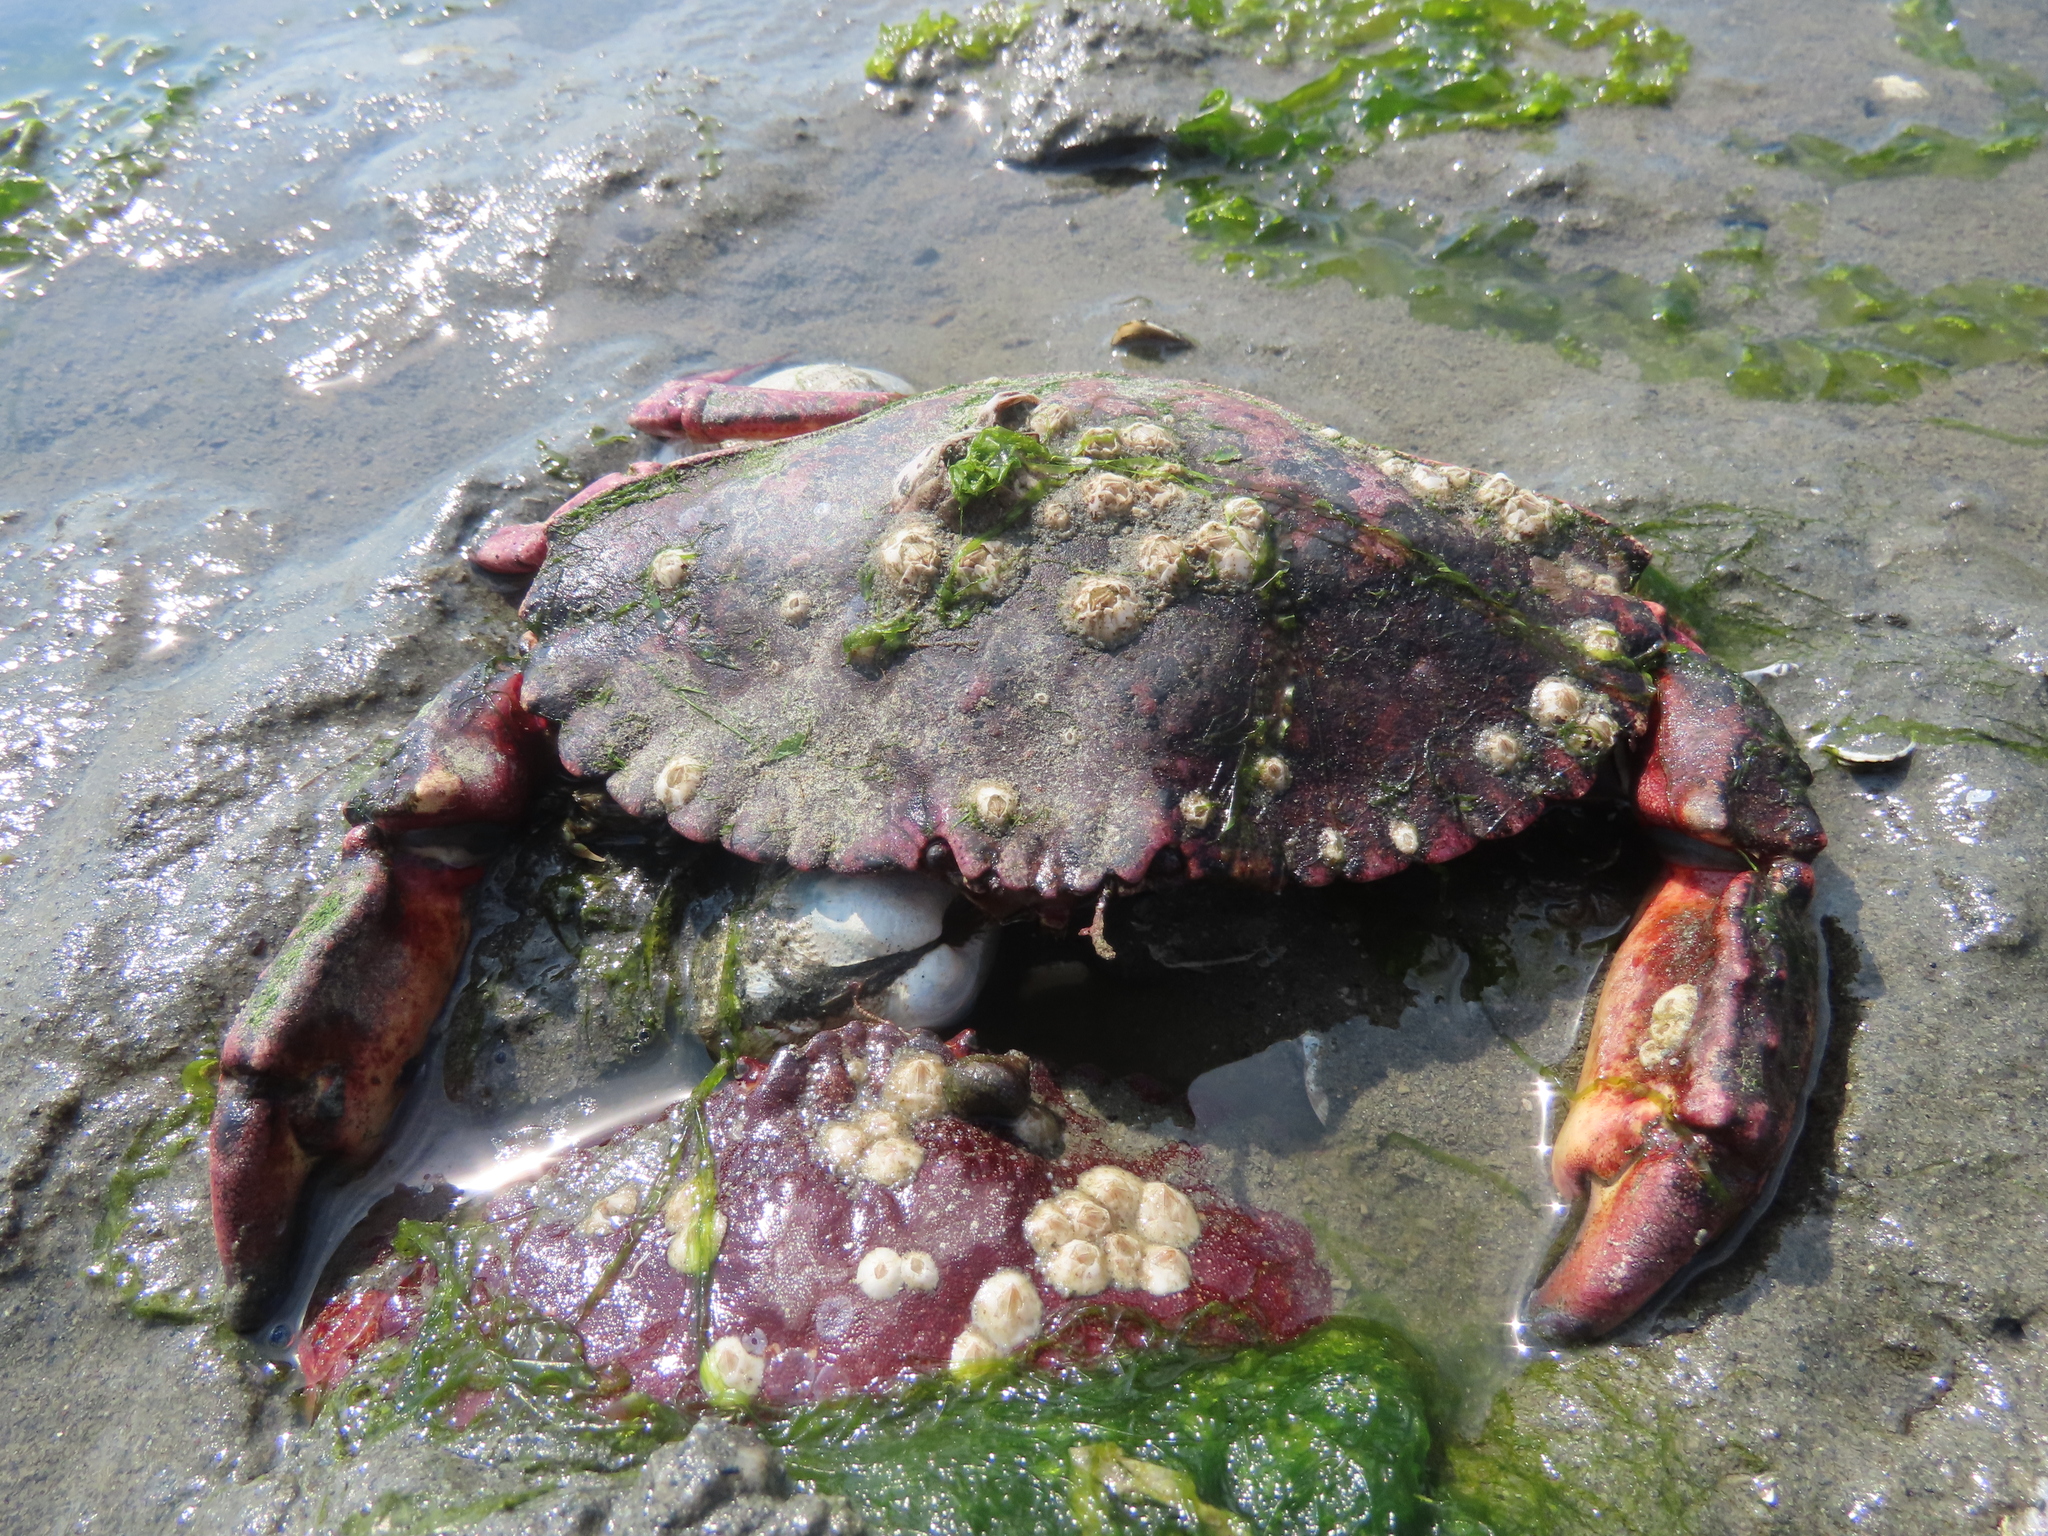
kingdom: Animalia
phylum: Arthropoda
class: Malacostraca
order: Decapoda
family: Cancridae
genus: Cancer
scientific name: Cancer productus
